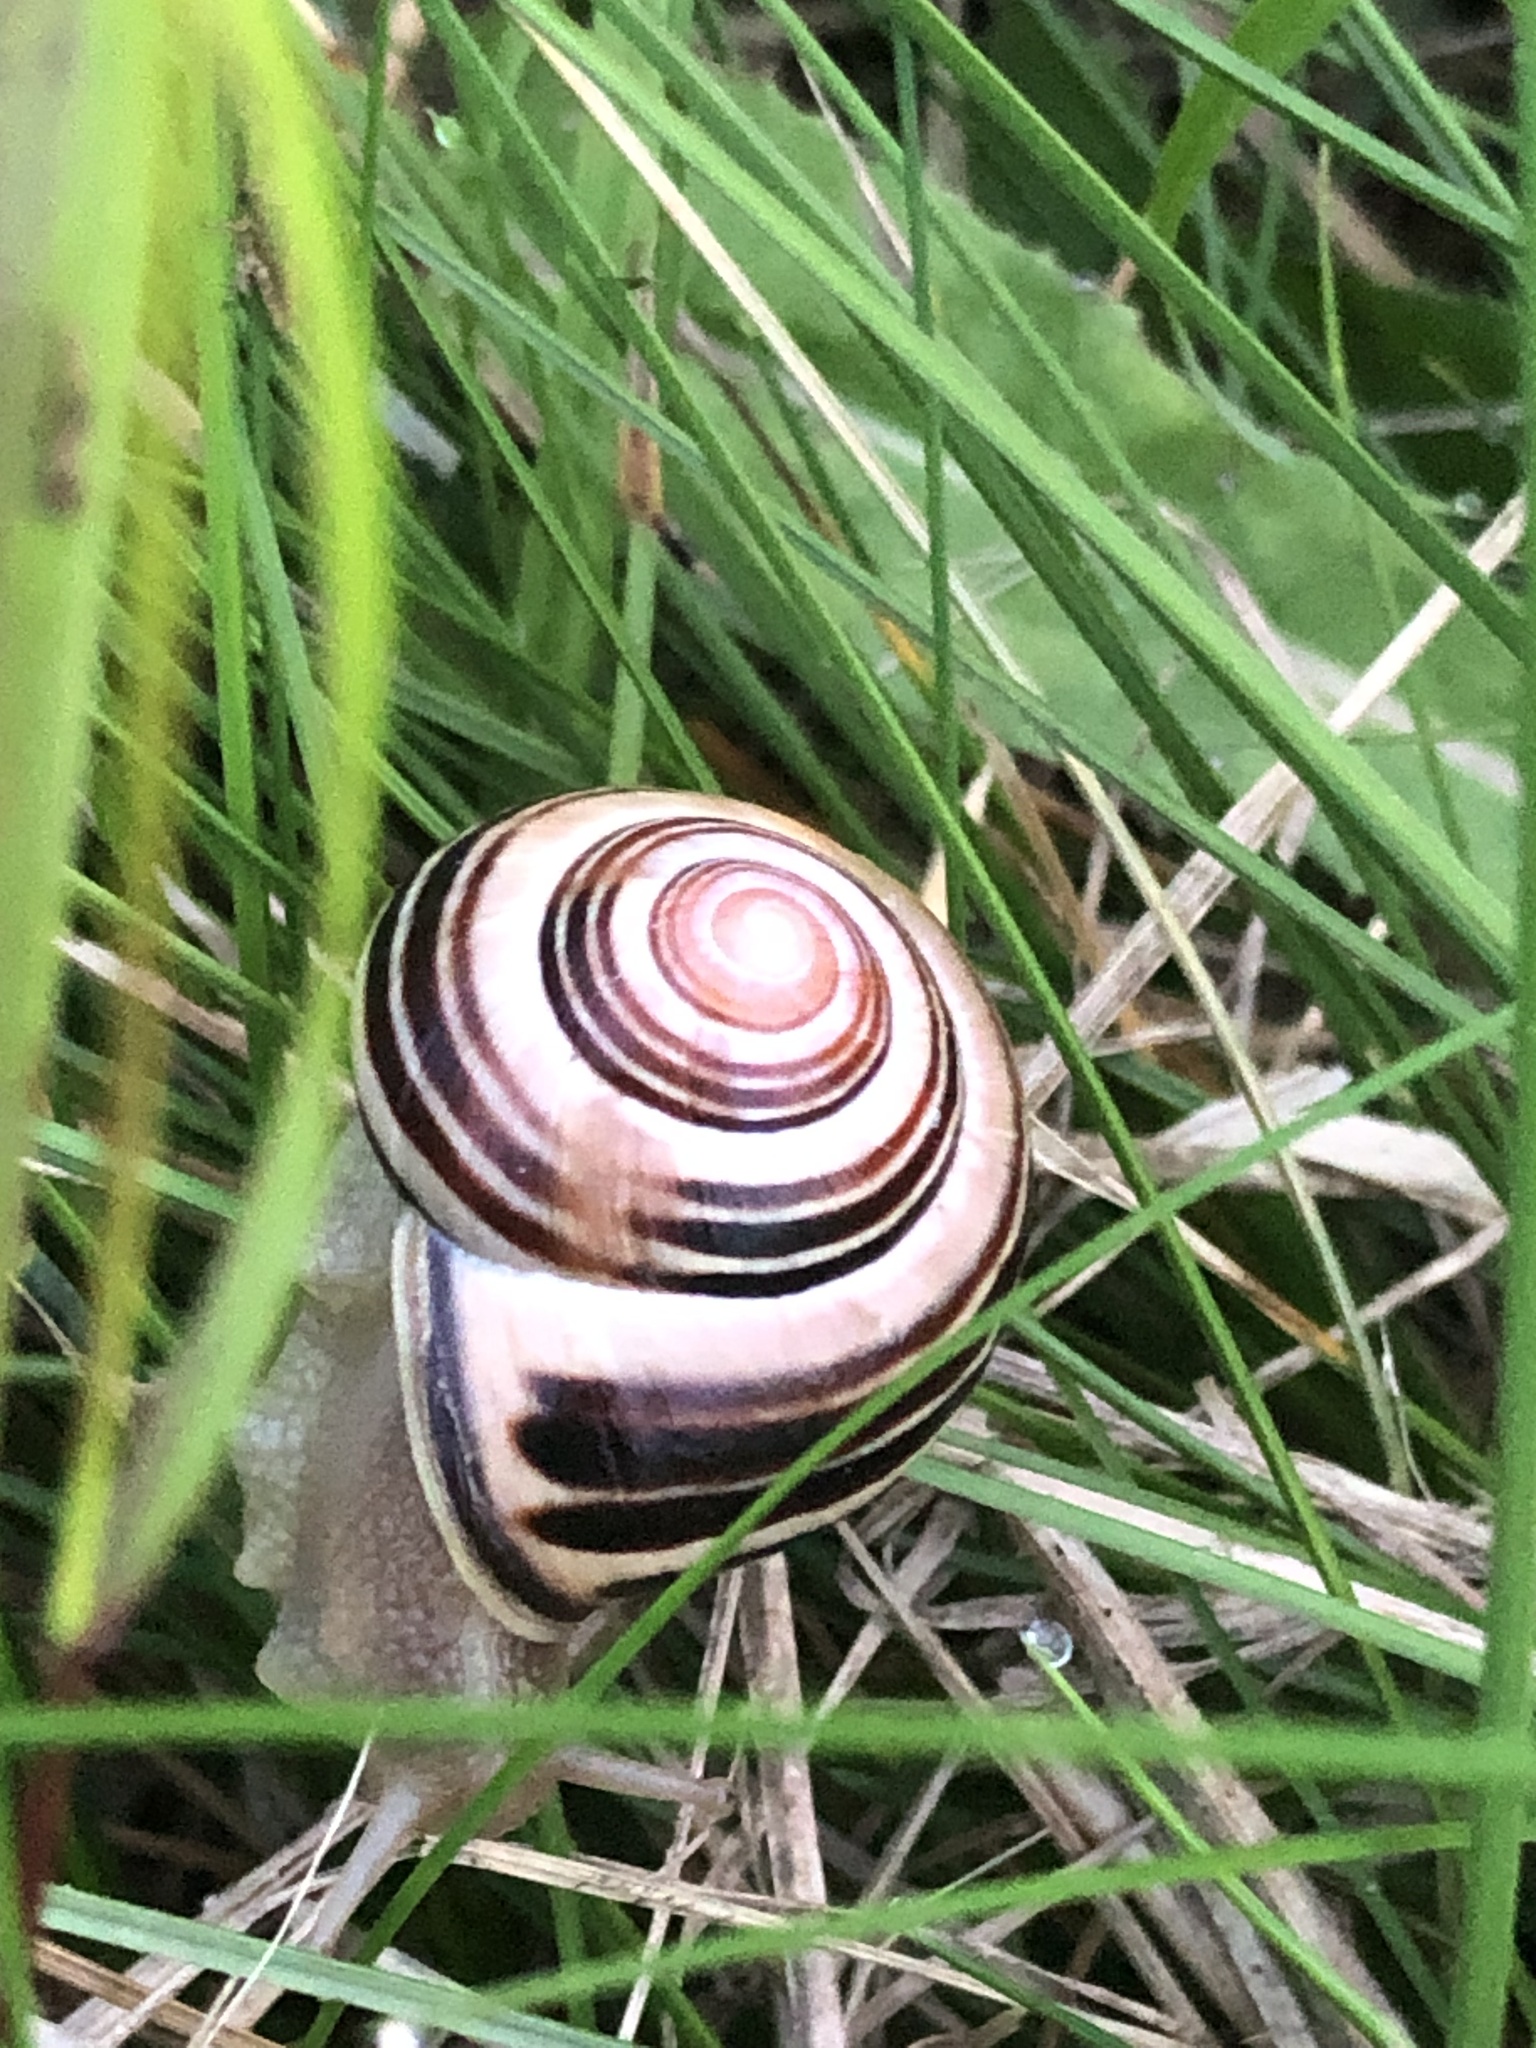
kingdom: Animalia
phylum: Mollusca
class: Gastropoda
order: Stylommatophora
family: Helicidae
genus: Cepaea
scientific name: Cepaea nemoralis
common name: Grovesnail
